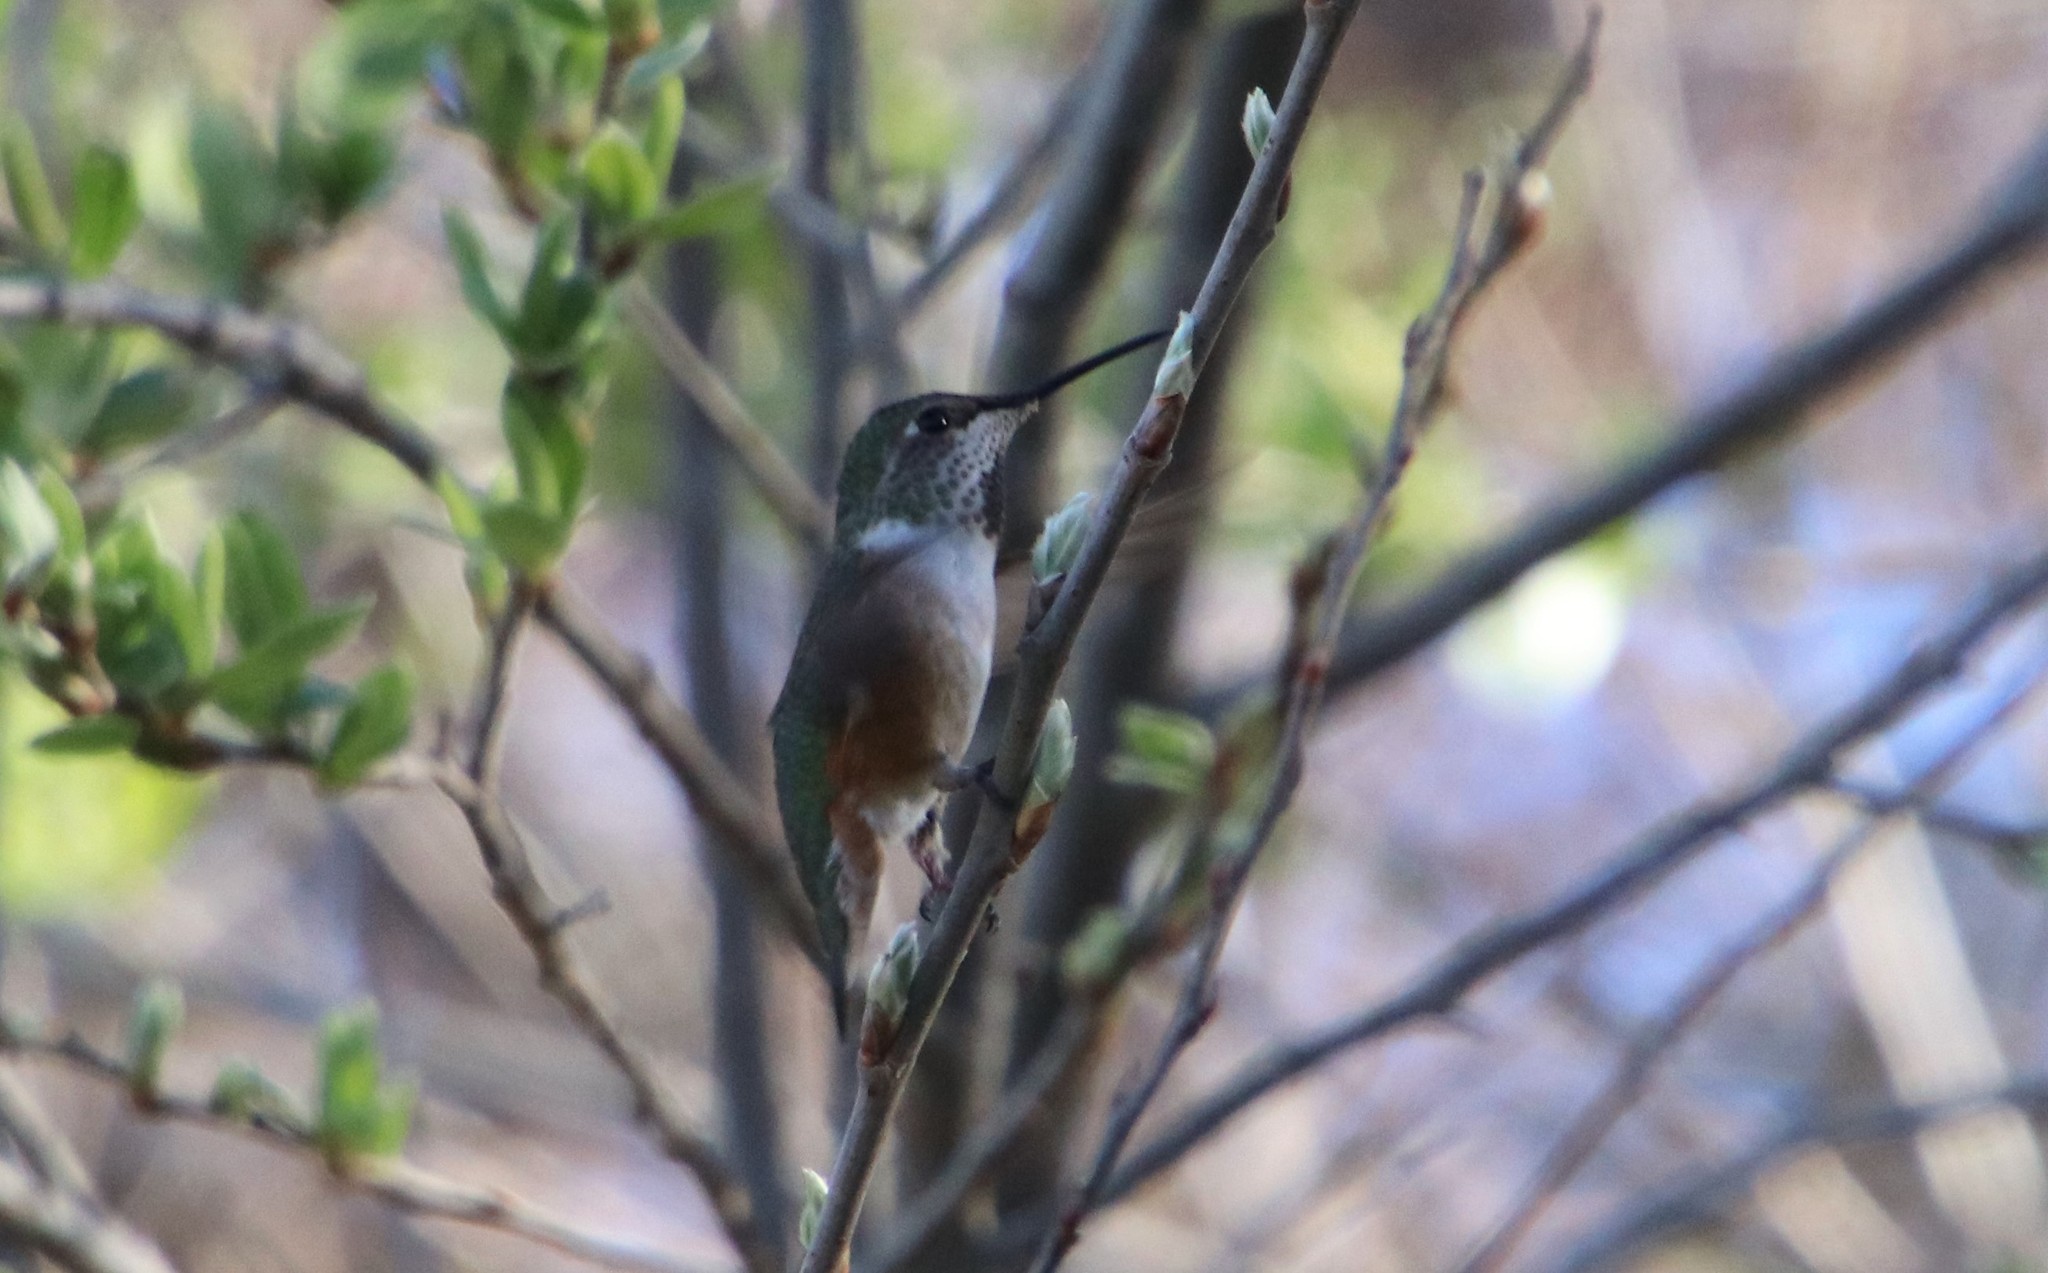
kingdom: Animalia
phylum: Chordata
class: Aves
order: Apodiformes
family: Trochilidae
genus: Selasphorus
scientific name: Selasphorus
